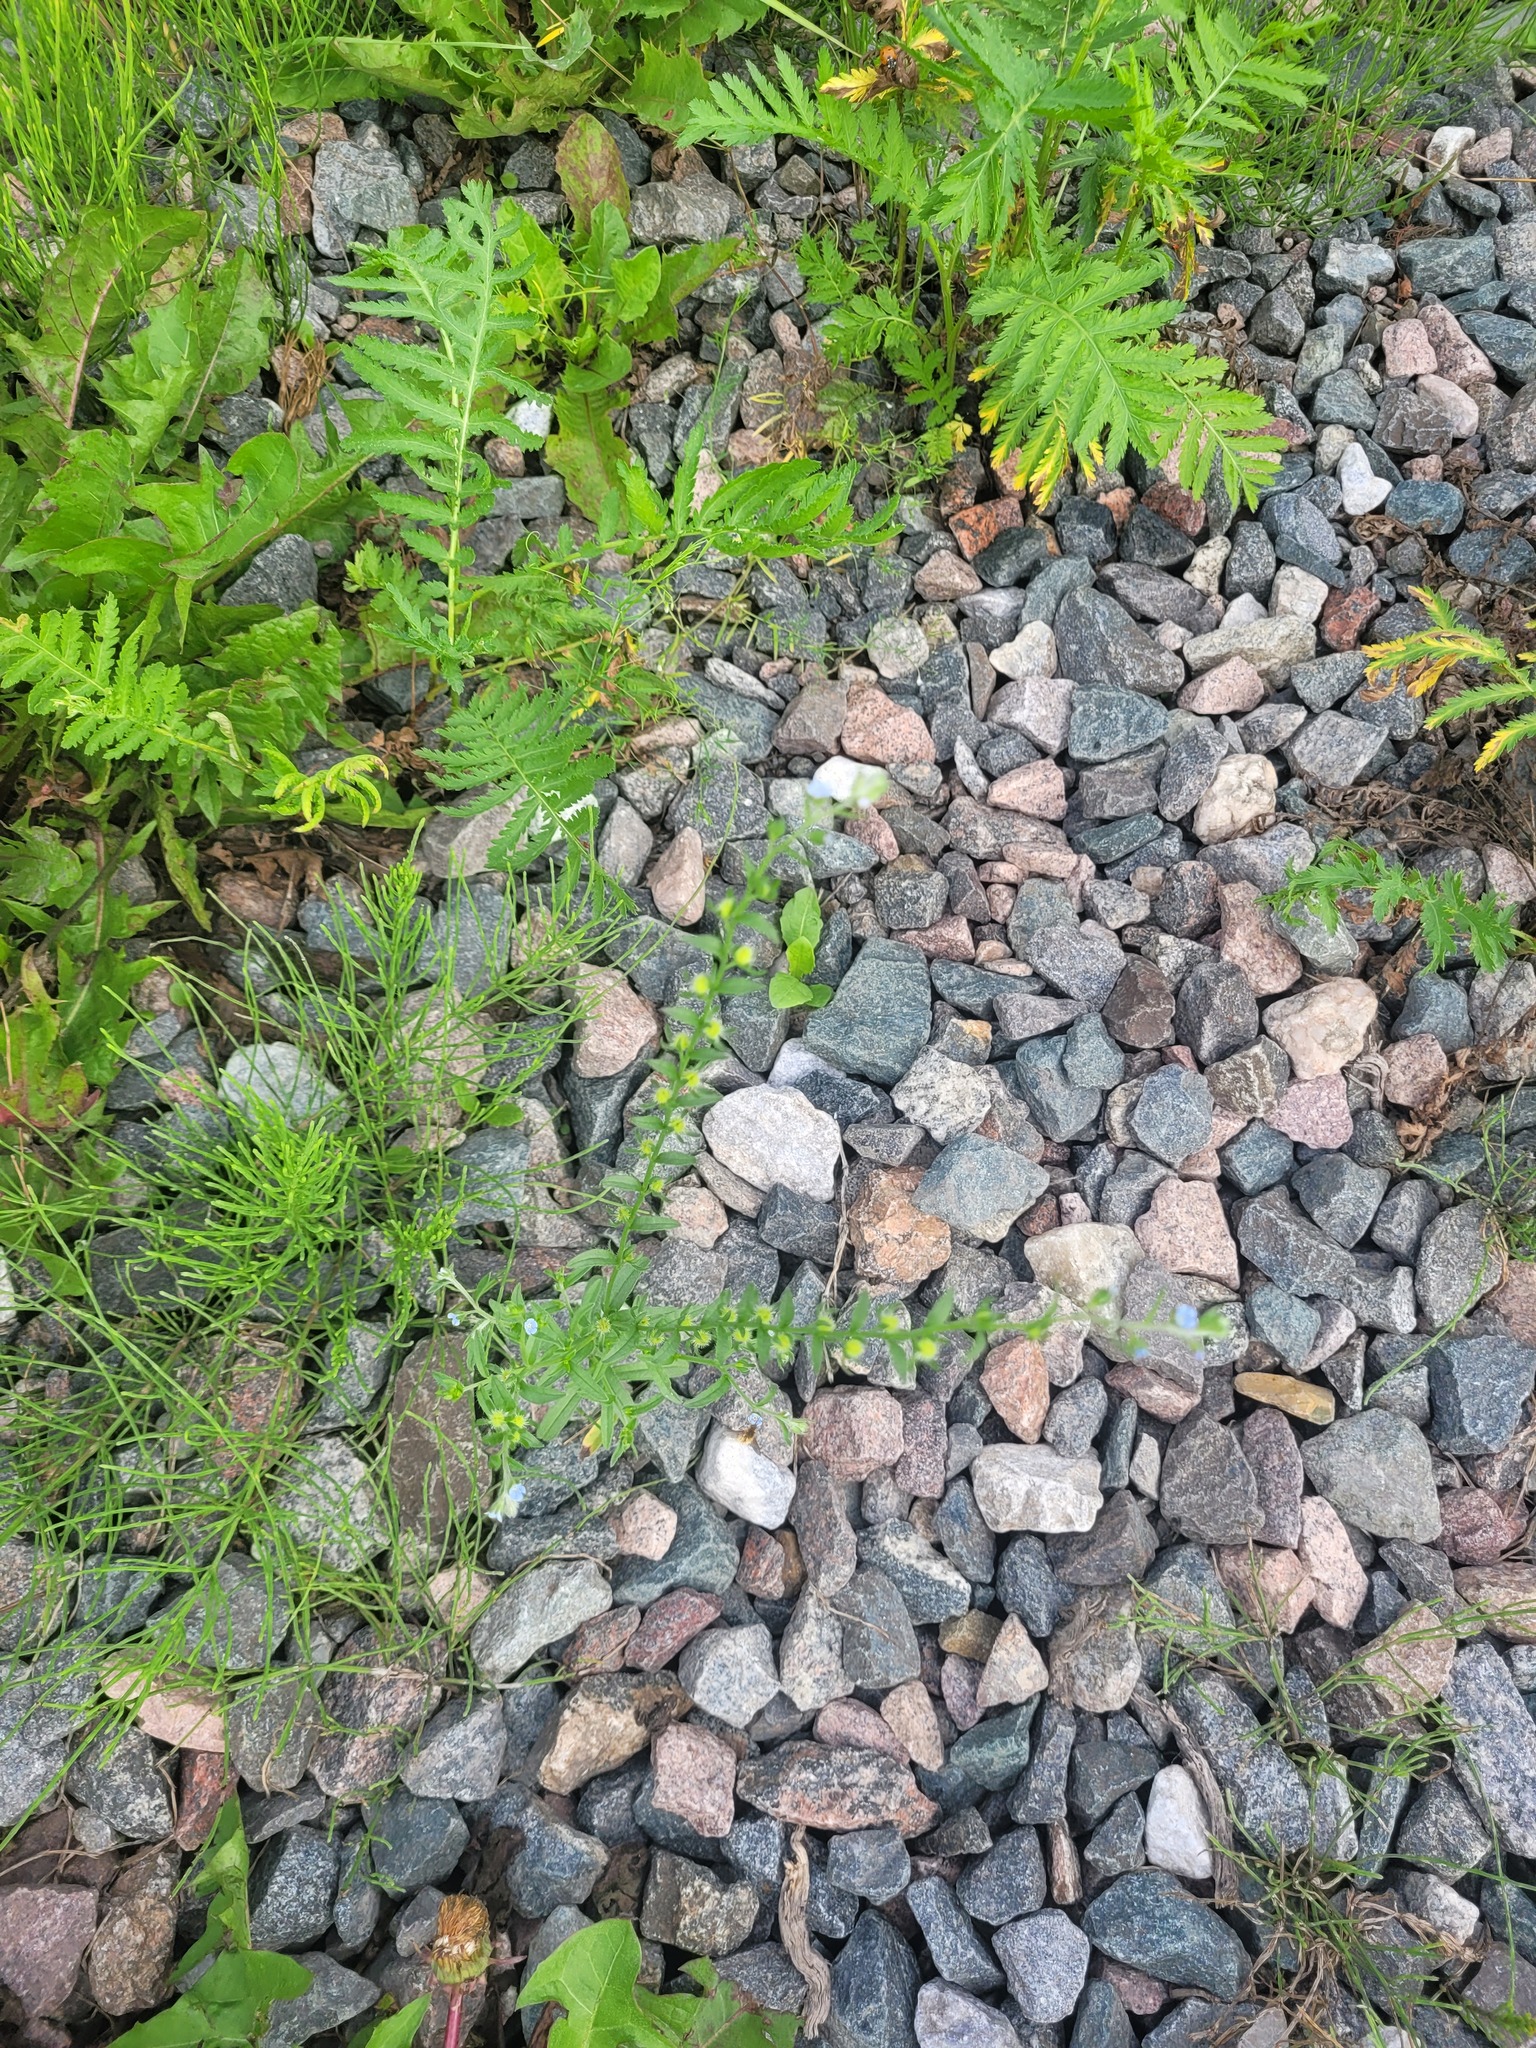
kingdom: Plantae
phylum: Tracheophyta
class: Magnoliopsida
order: Boraginales
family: Boraginaceae
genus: Lappula
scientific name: Lappula squarrosa
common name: European stickseed
